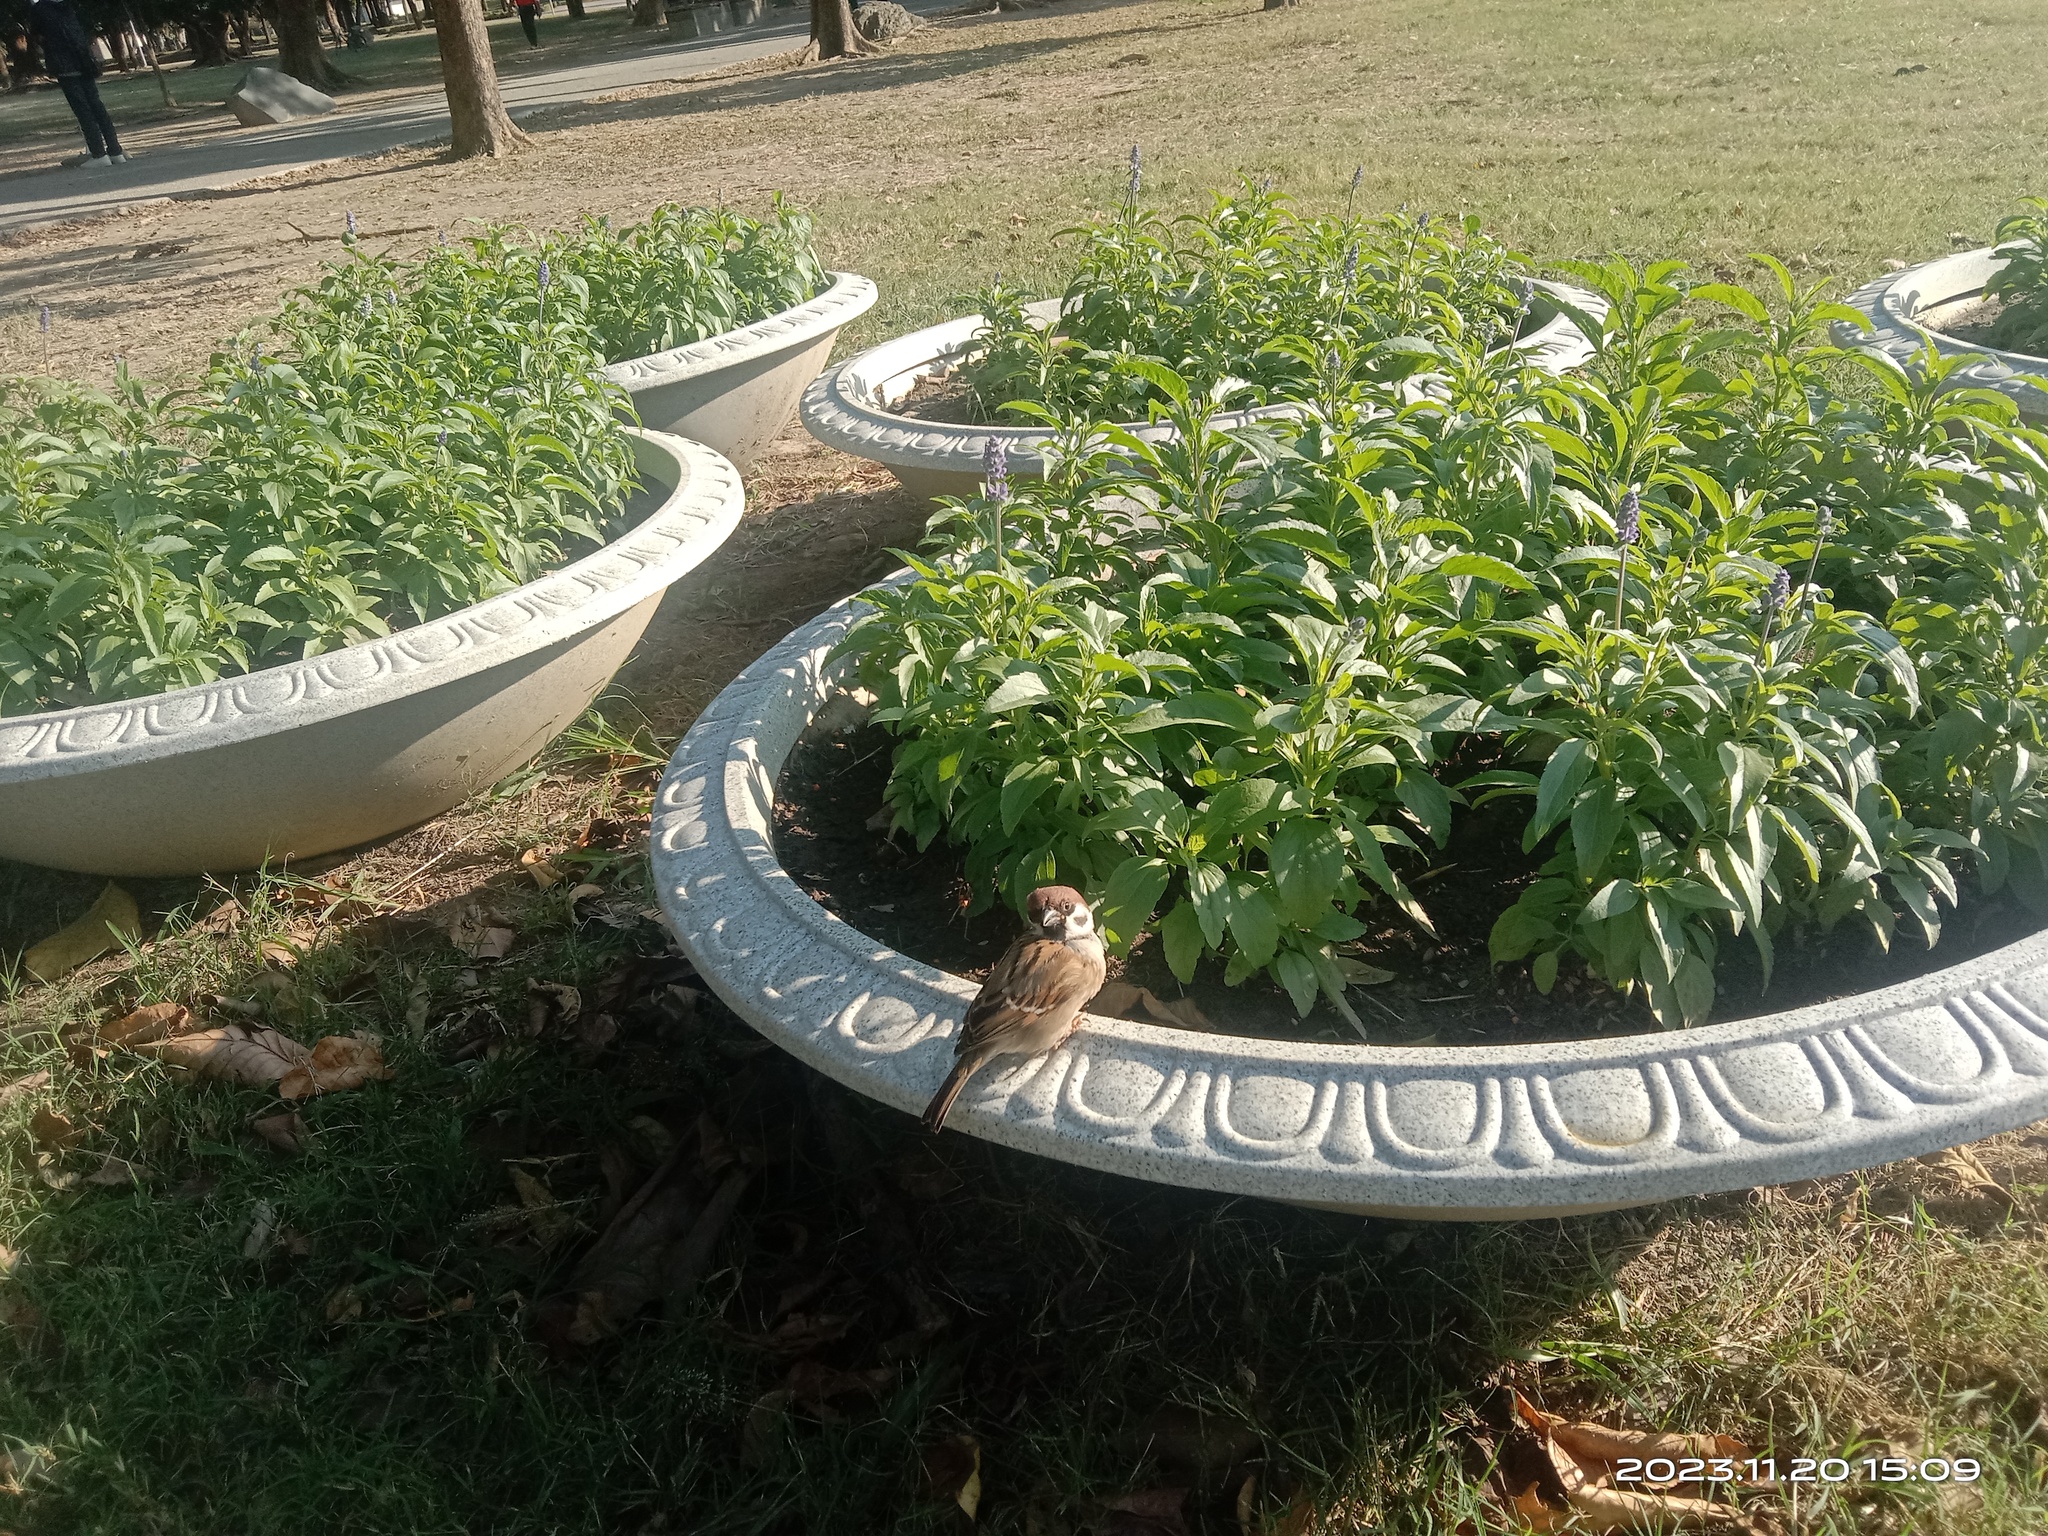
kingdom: Animalia
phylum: Chordata
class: Aves
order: Passeriformes
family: Passeridae
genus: Passer
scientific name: Passer montanus
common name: Eurasian tree sparrow
